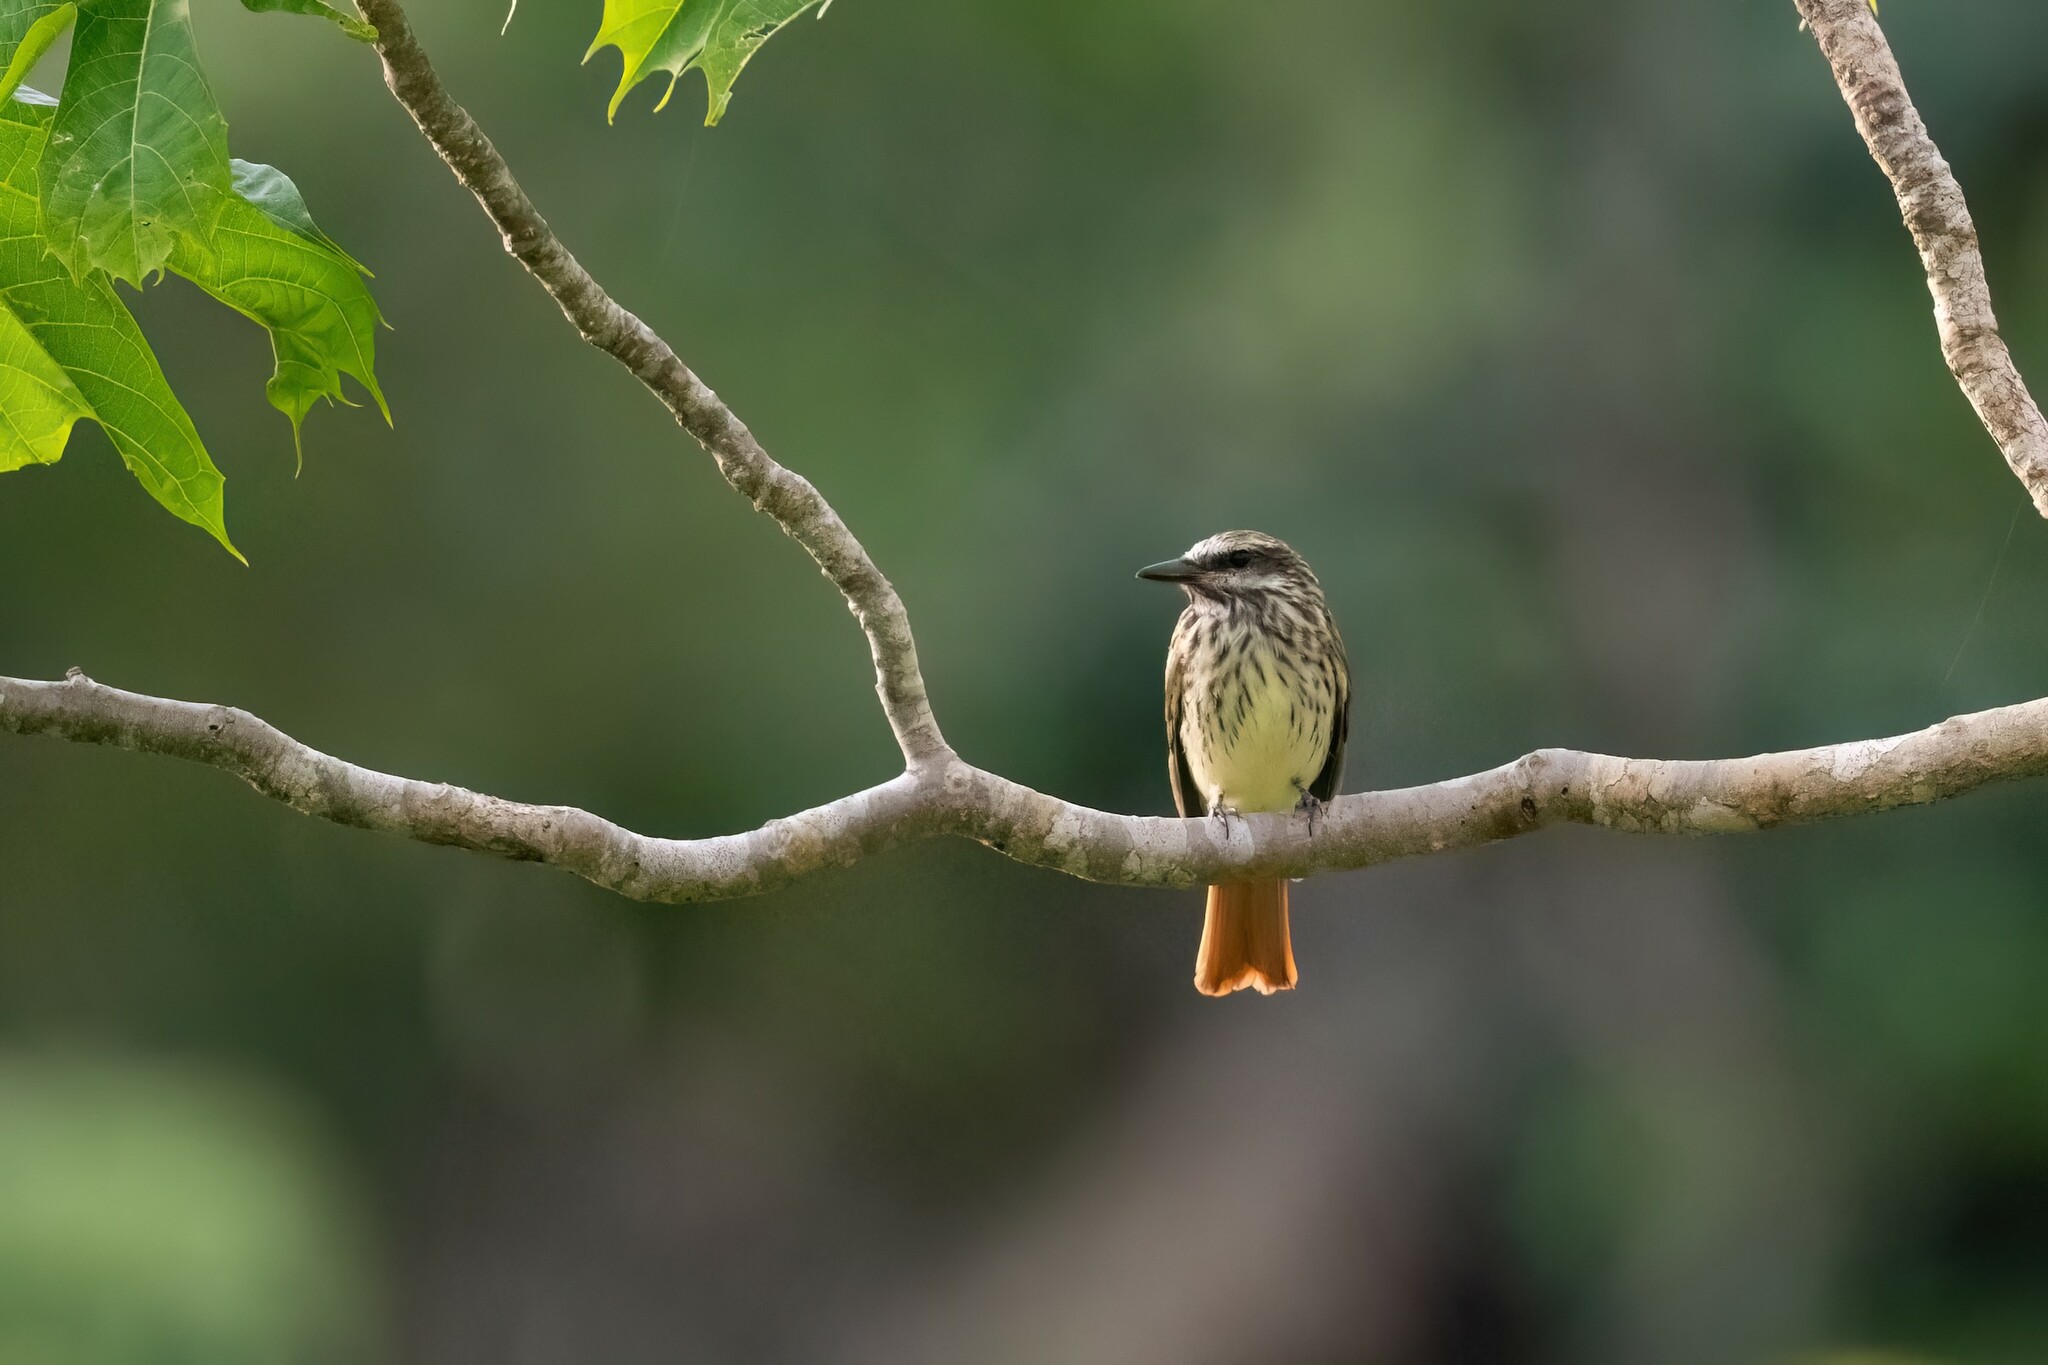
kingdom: Animalia
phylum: Chordata
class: Aves
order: Passeriformes
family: Tyrannidae
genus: Myiodynastes
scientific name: Myiodynastes luteiventris
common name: Sulphur-bellied flycatcher
